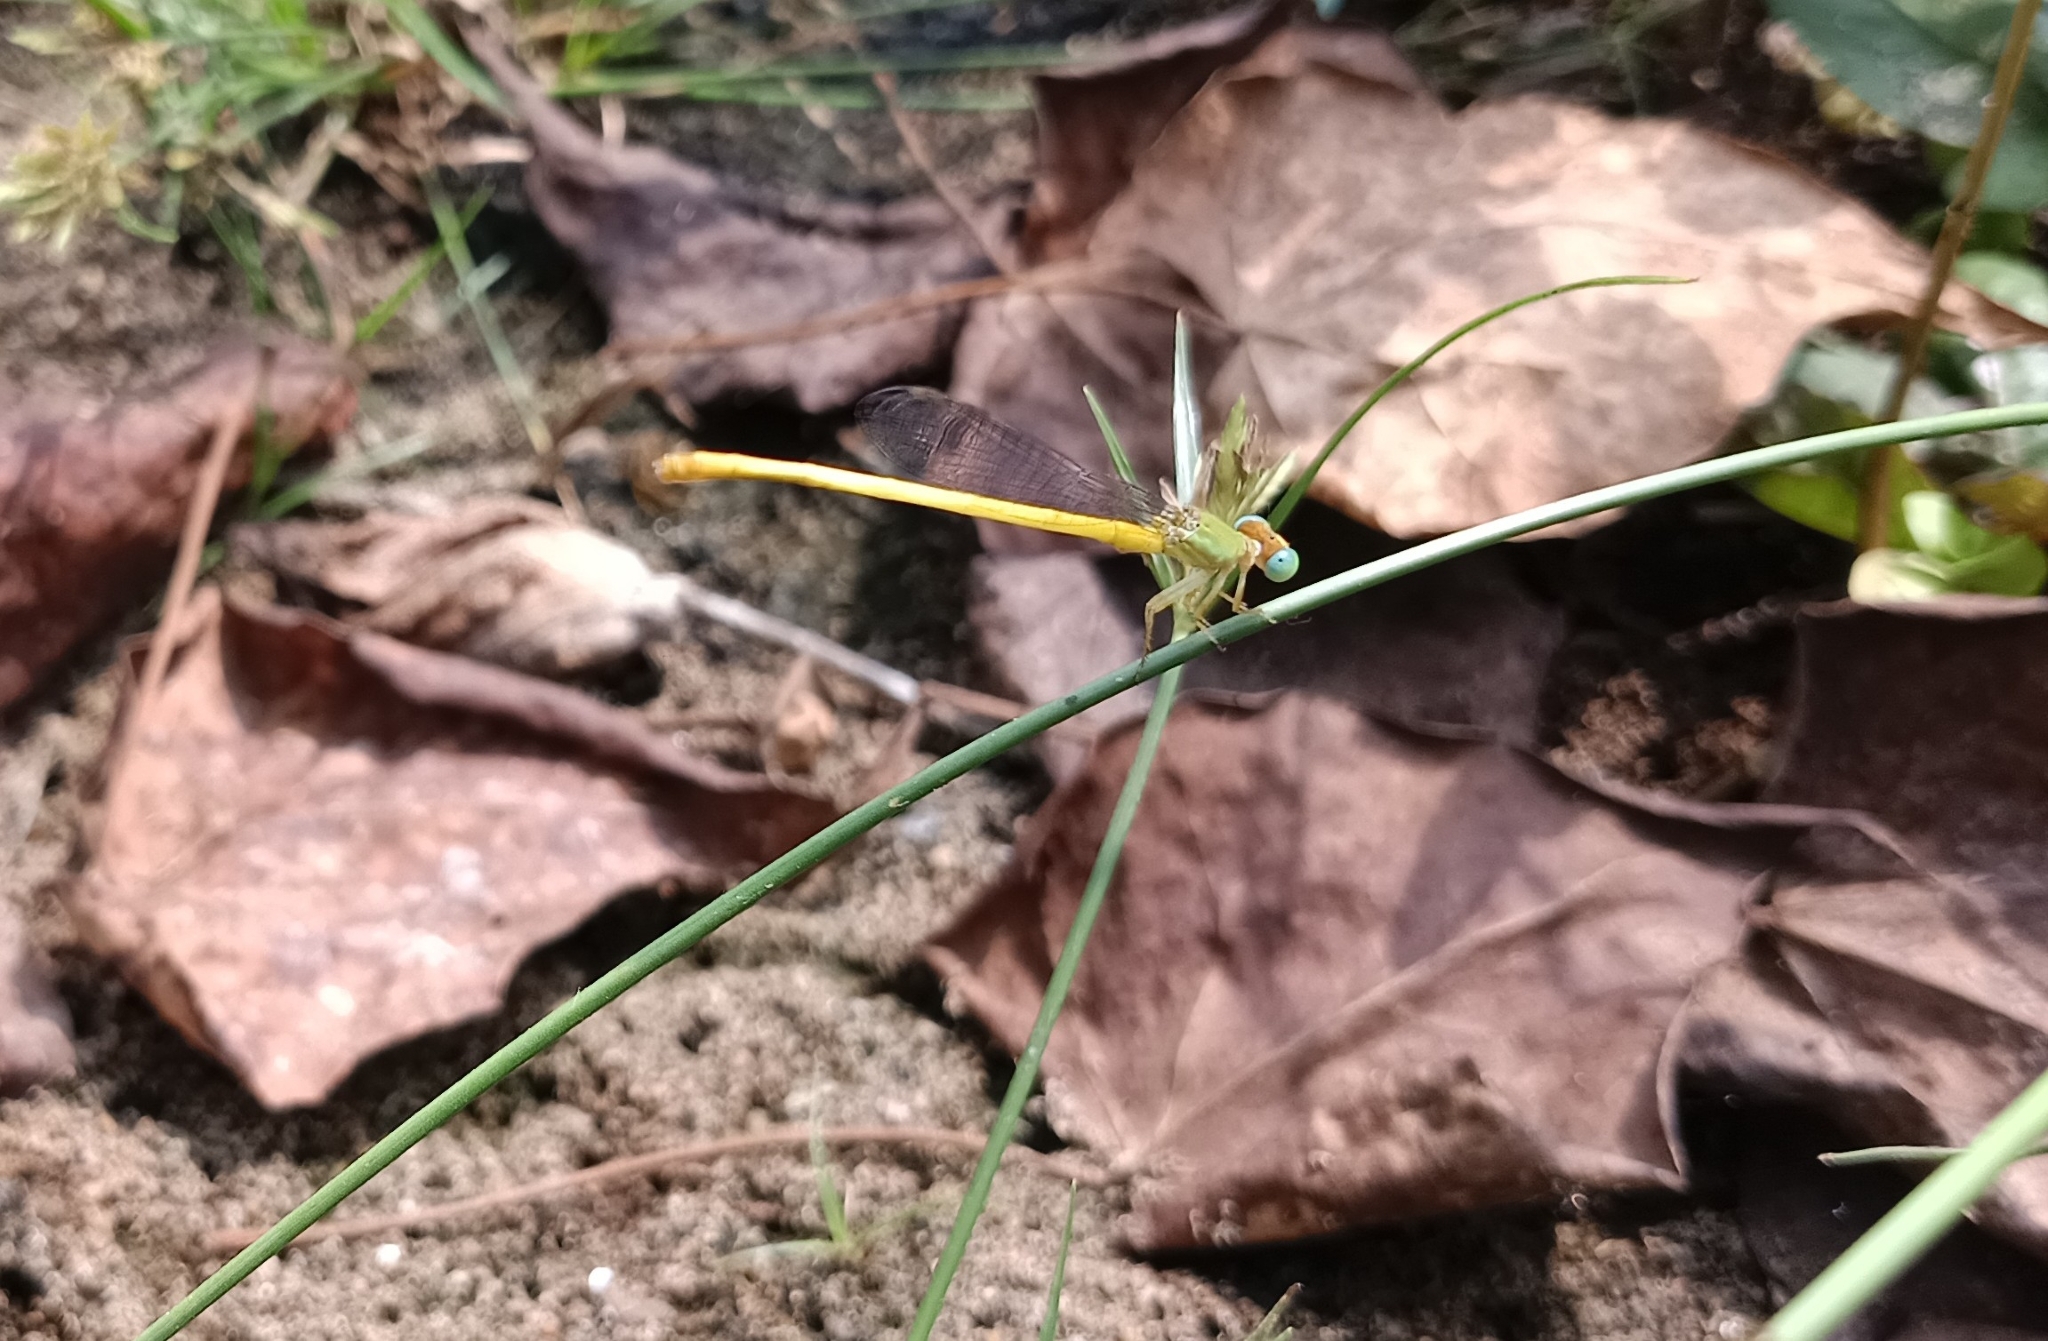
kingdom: Animalia
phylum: Arthropoda
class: Insecta
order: Odonata
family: Coenagrionidae
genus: Ceriagrion
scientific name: Ceriagrion coromandelianum
